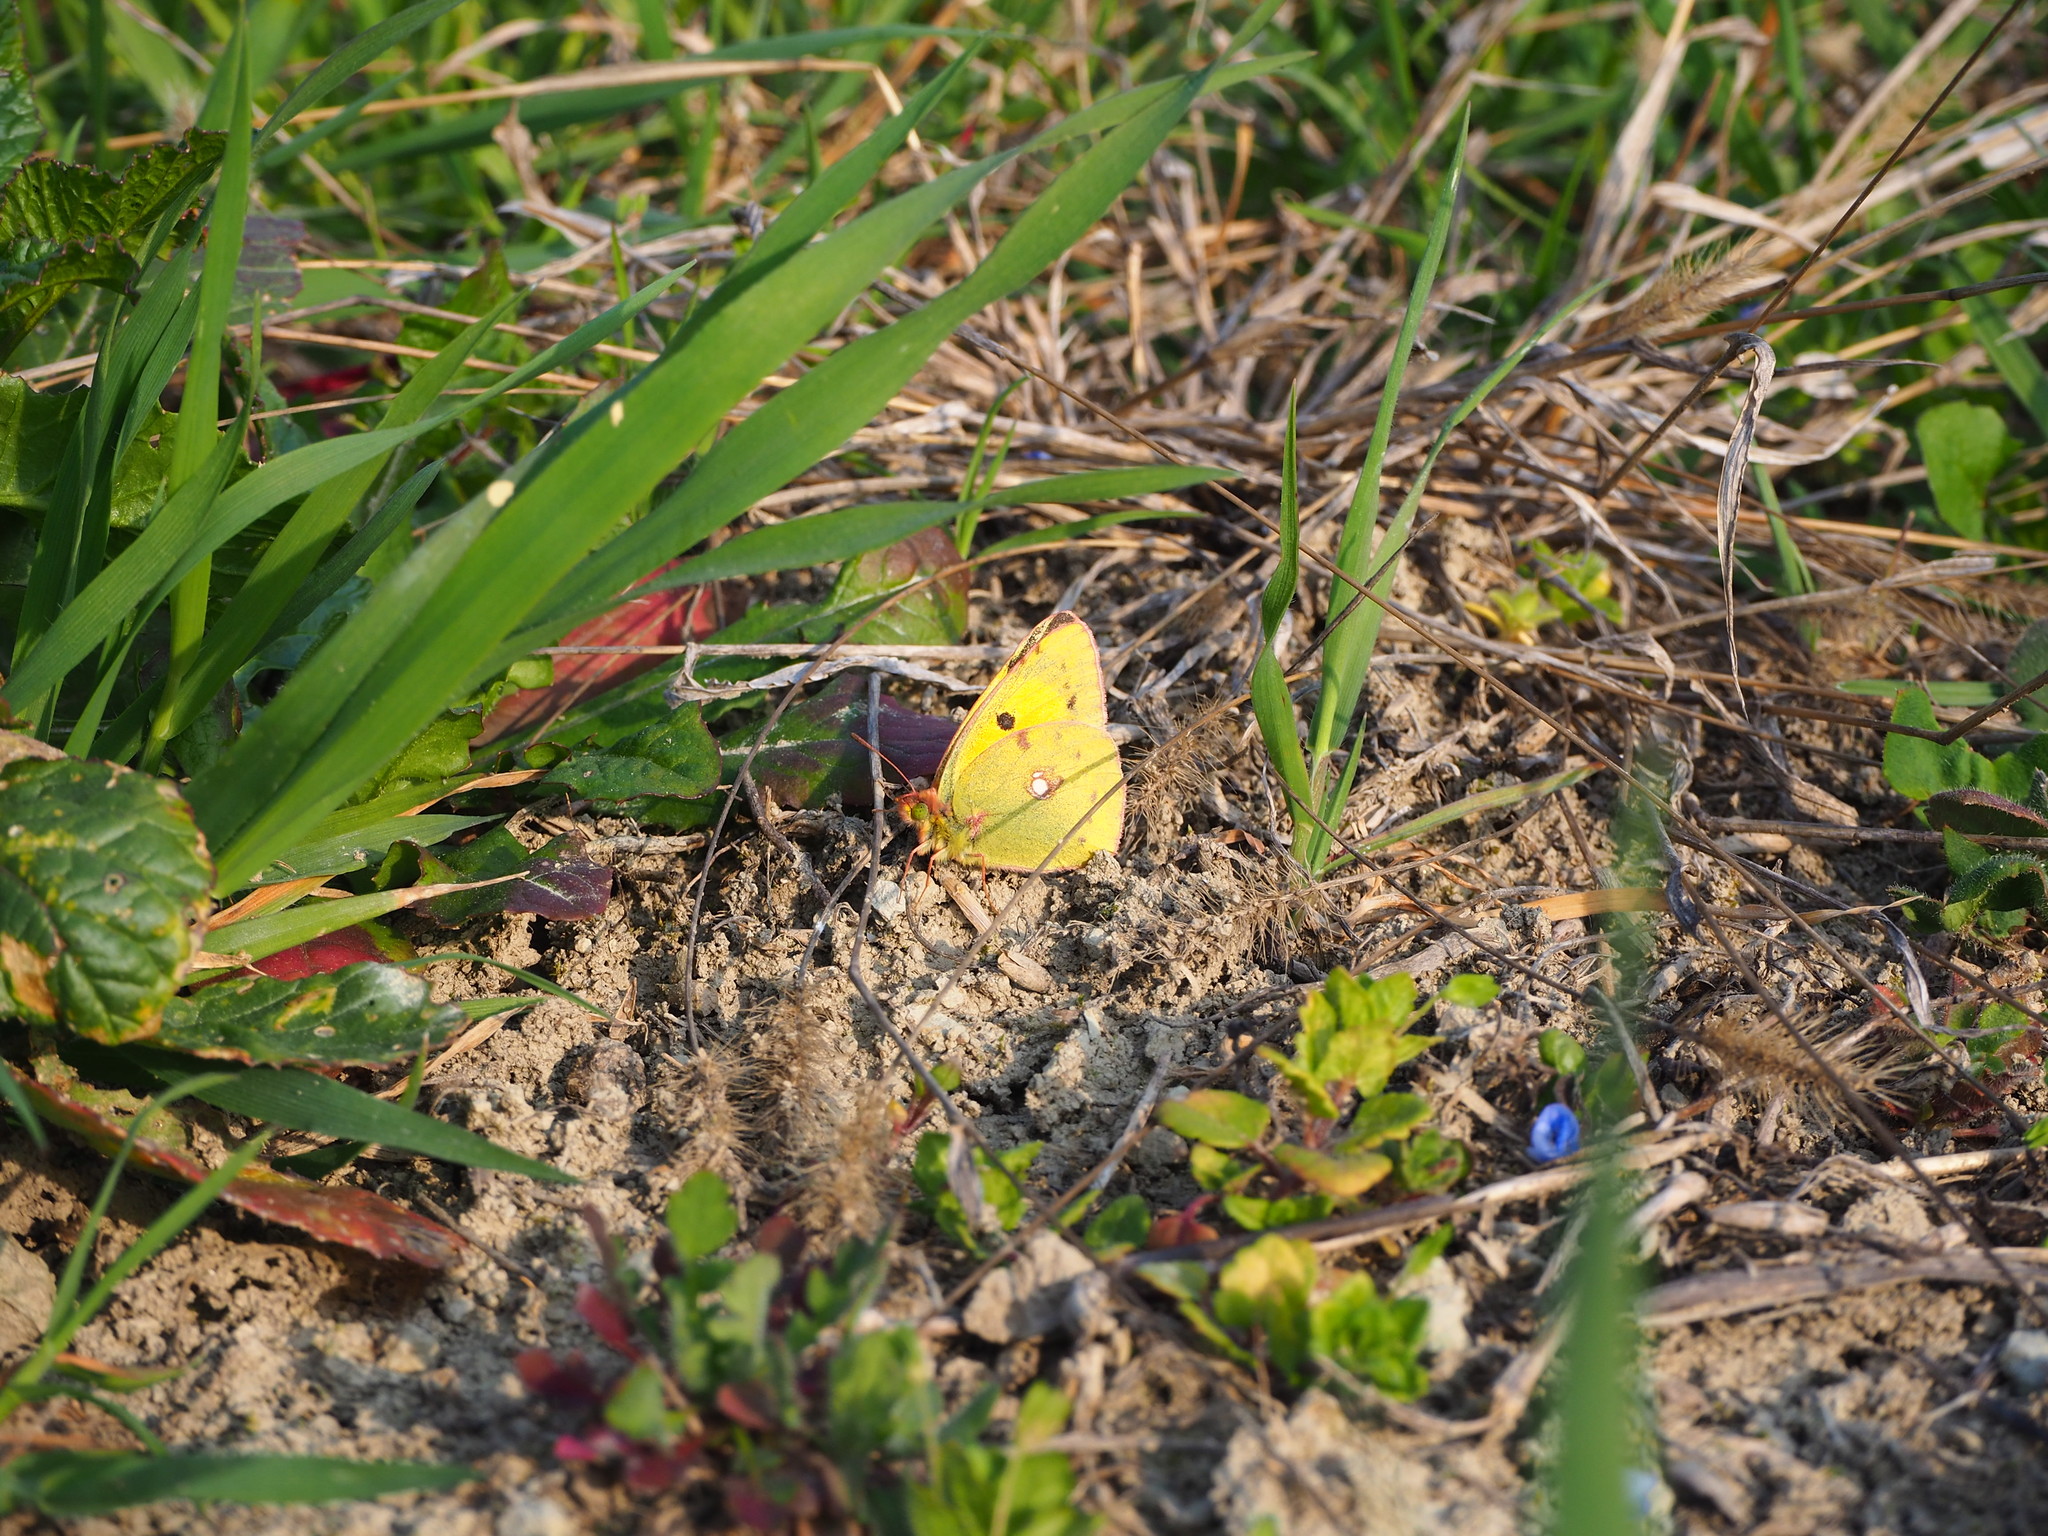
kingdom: Animalia
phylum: Arthropoda
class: Insecta
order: Lepidoptera
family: Pieridae
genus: Colias
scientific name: Colias croceus
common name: Clouded yellow
